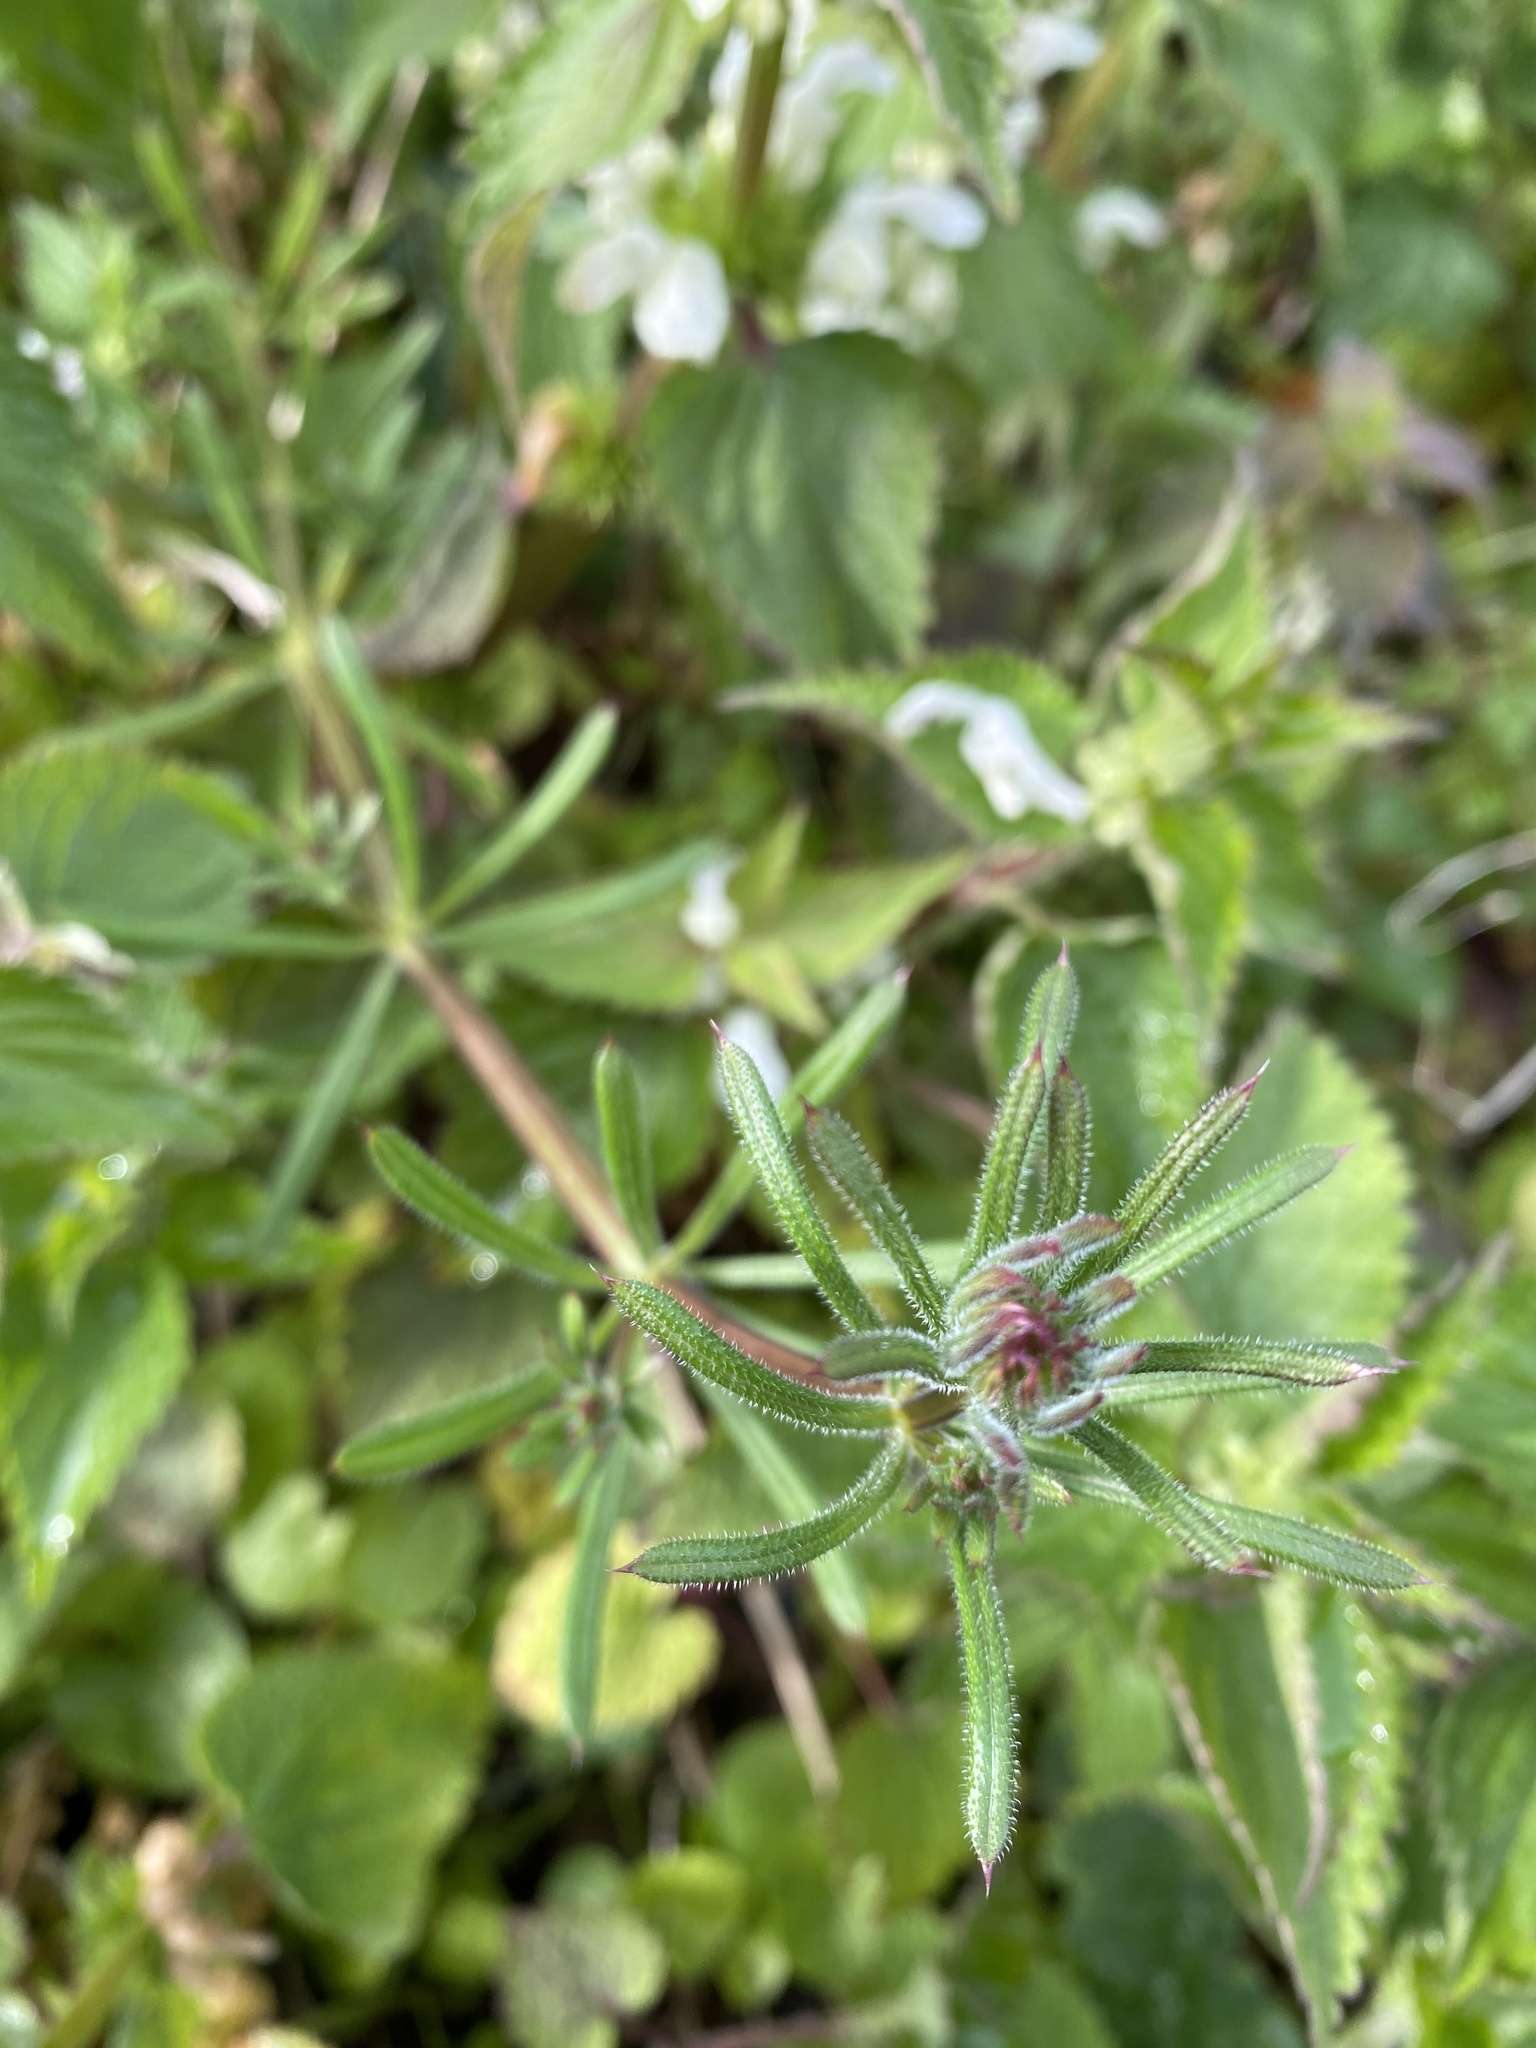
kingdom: Plantae
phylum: Tracheophyta
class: Magnoliopsida
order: Gentianales
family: Rubiaceae
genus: Galium
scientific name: Galium aparine
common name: Cleavers
